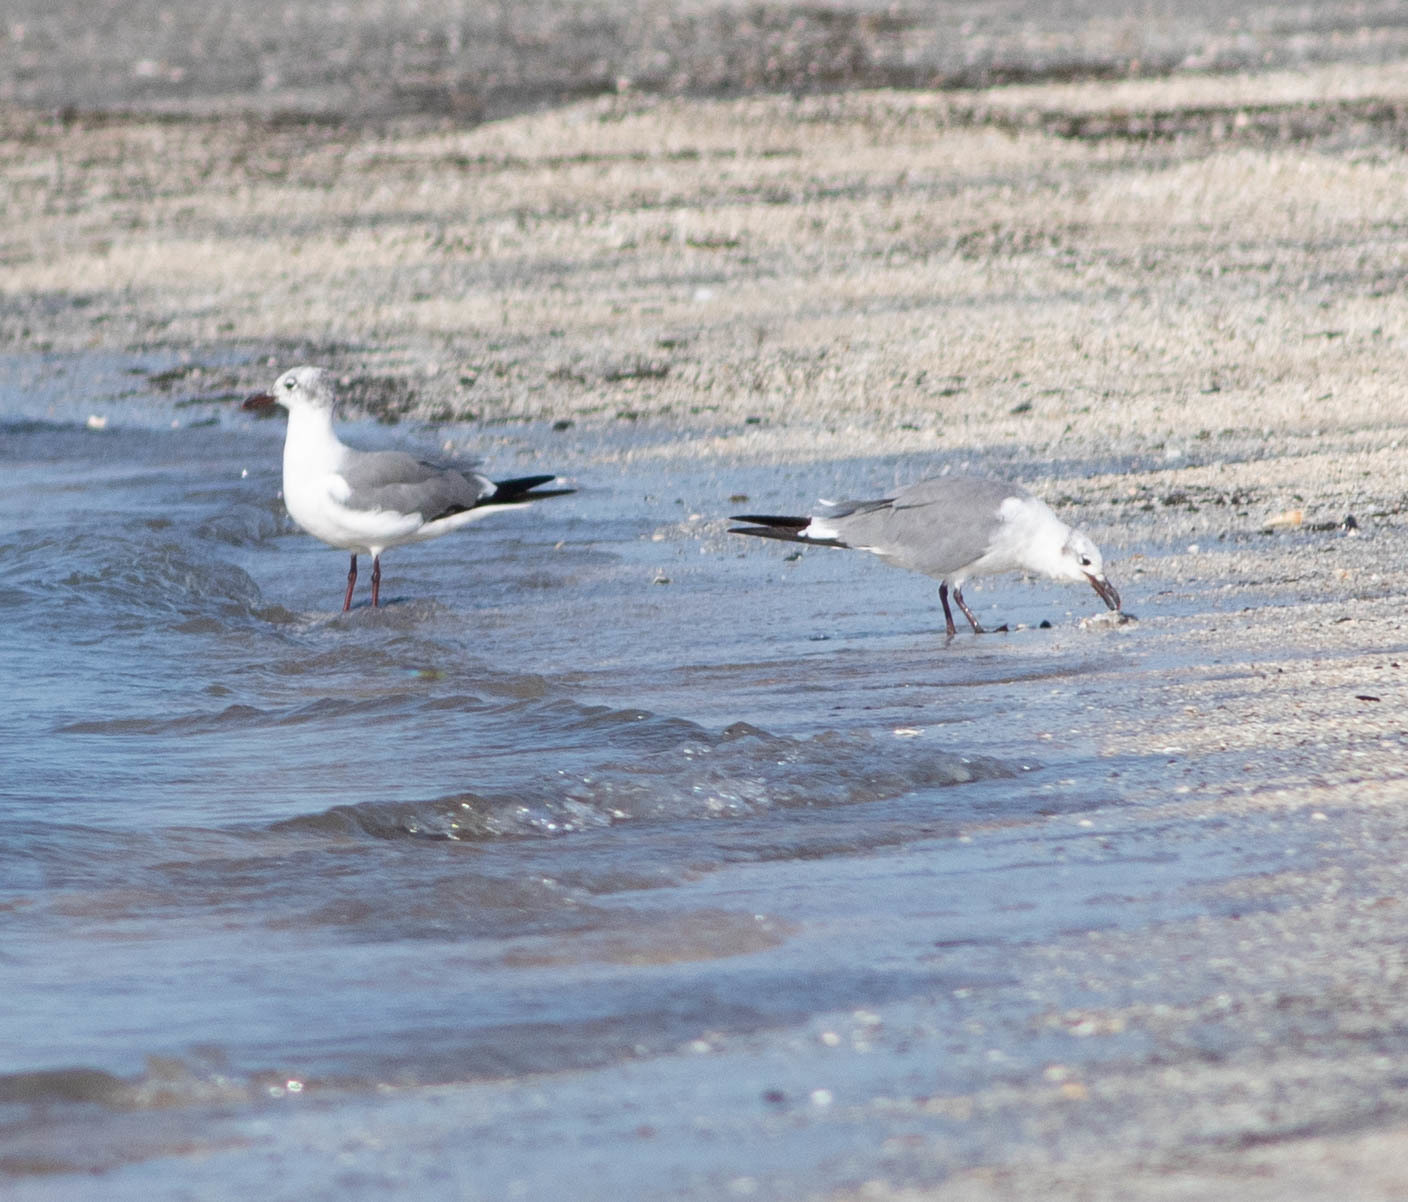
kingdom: Animalia
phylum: Chordata
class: Aves
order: Charadriiformes
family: Laridae
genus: Leucophaeus
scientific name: Leucophaeus atricilla
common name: Laughing gull
